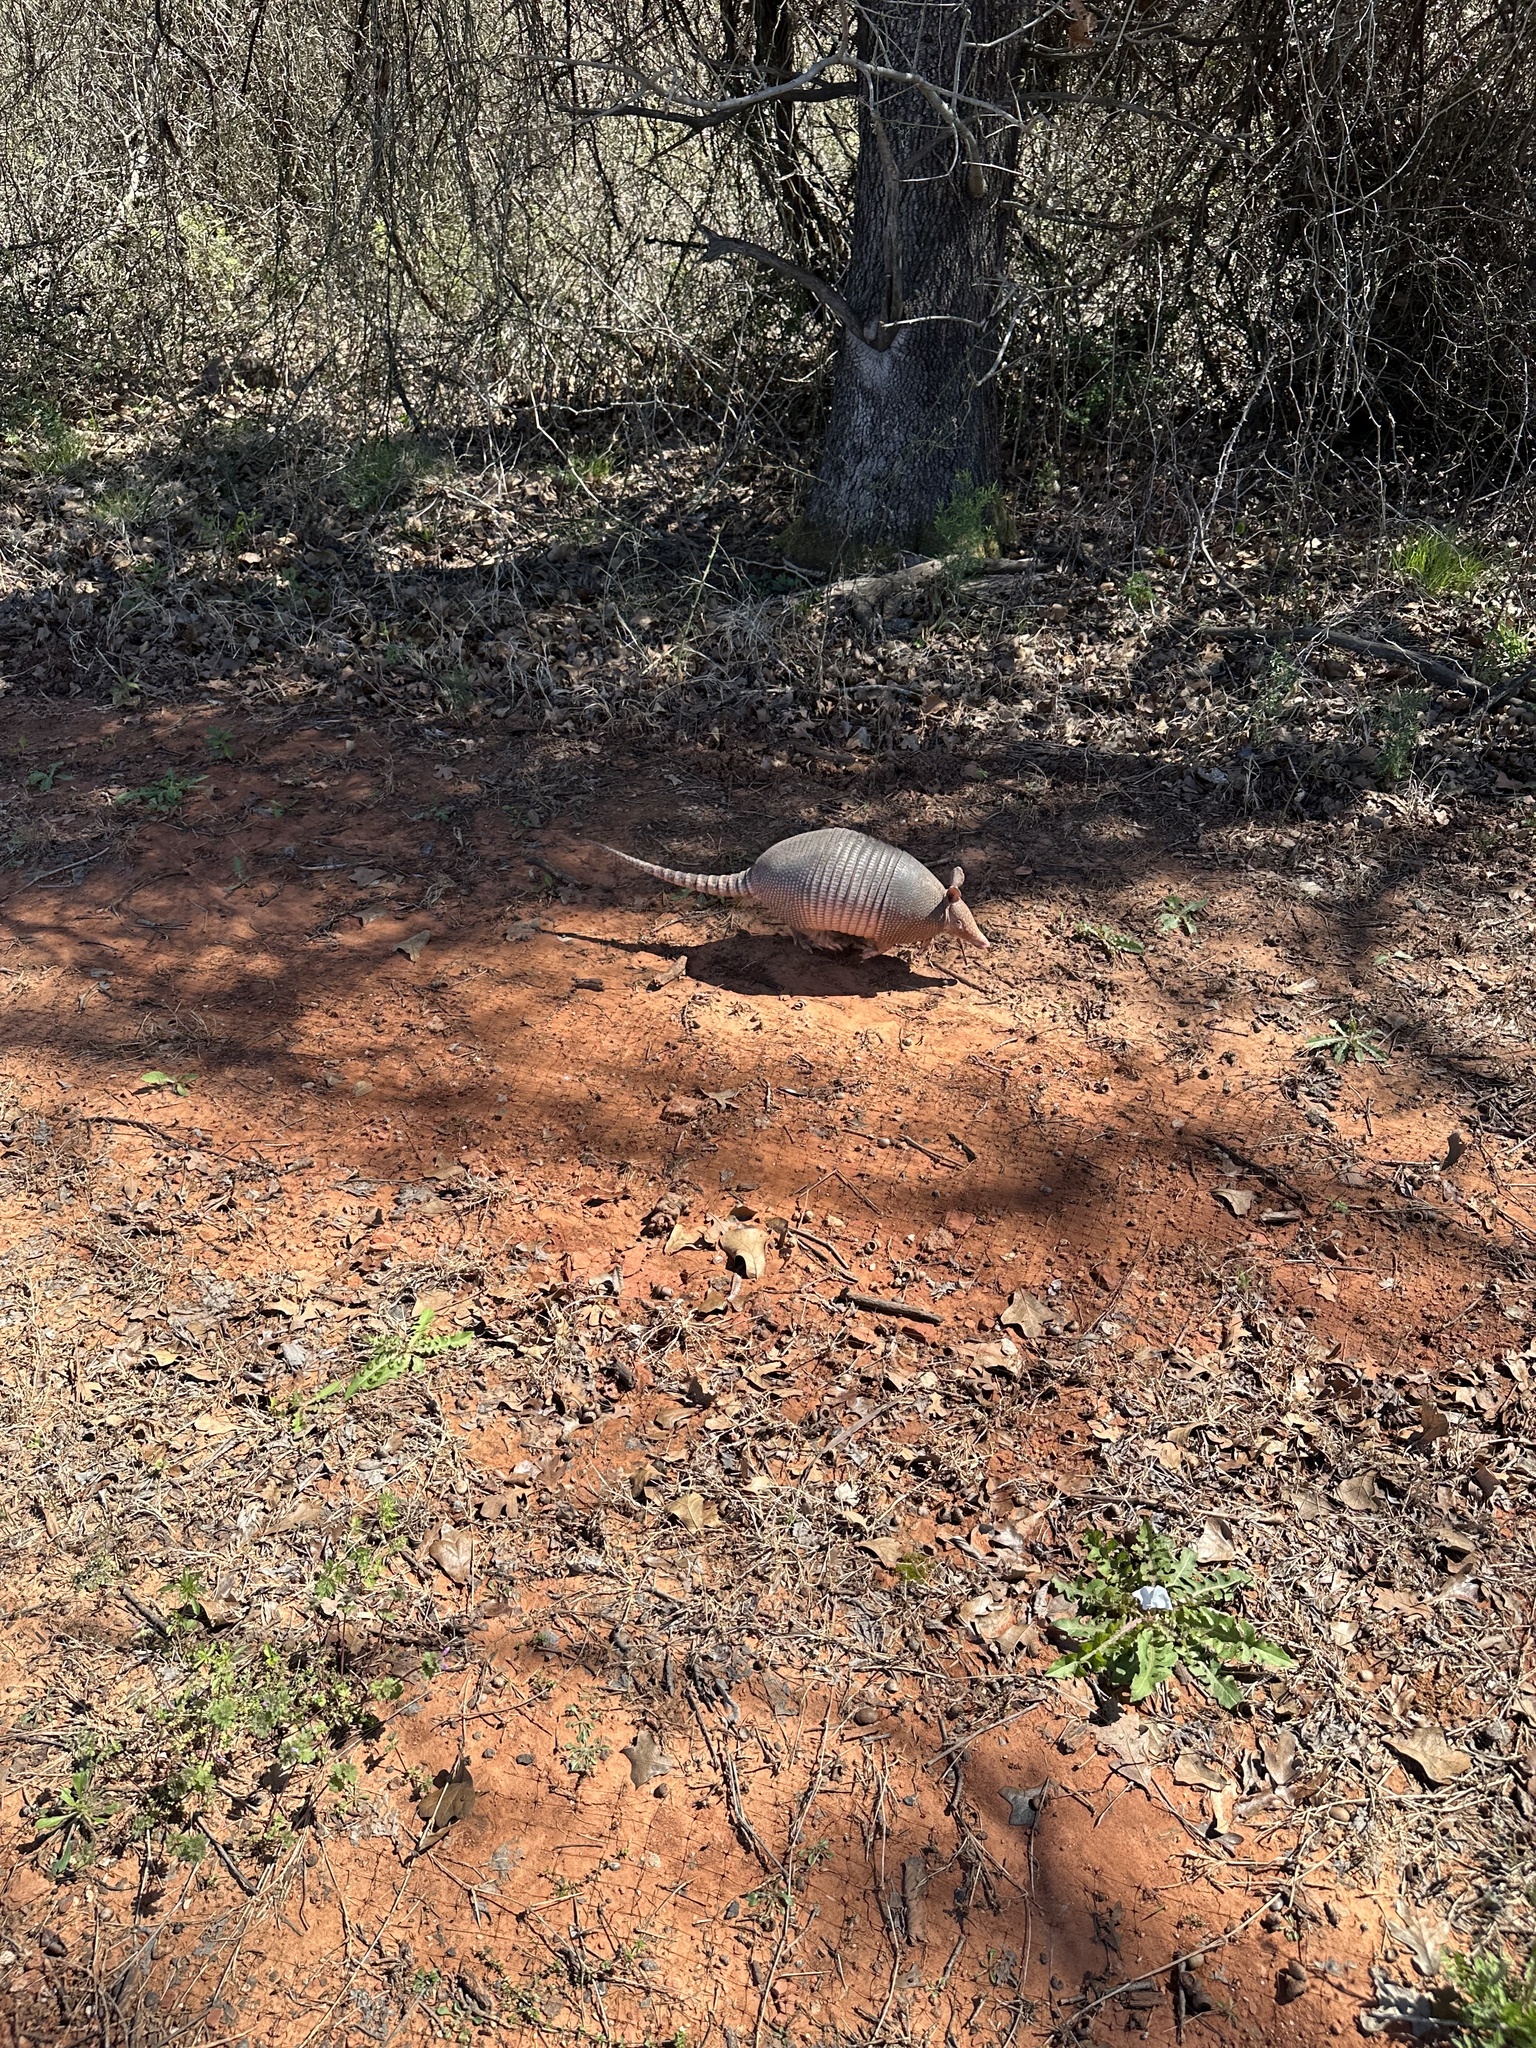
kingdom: Animalia
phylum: Chordata
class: Mammalia
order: Cingulata
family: Dasypodidae
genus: Dasypus
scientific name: Dasypus novemcinctus
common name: Nine-banded armadillo
